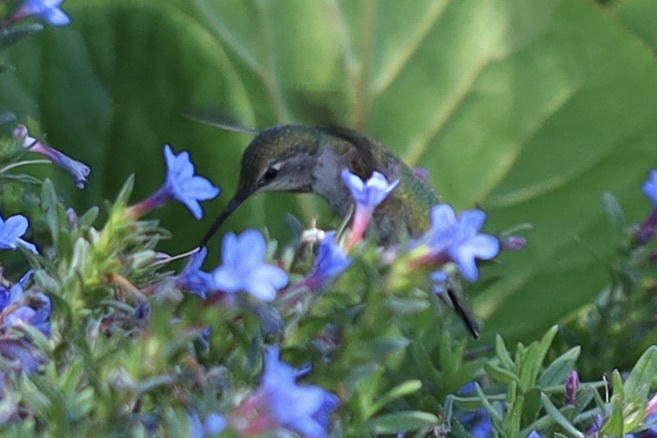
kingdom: Animalia
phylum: Chordata
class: Aves
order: Apodiformes
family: Trochilidae
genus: Calypte
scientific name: Calypte anna
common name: Anna's hummingbird
